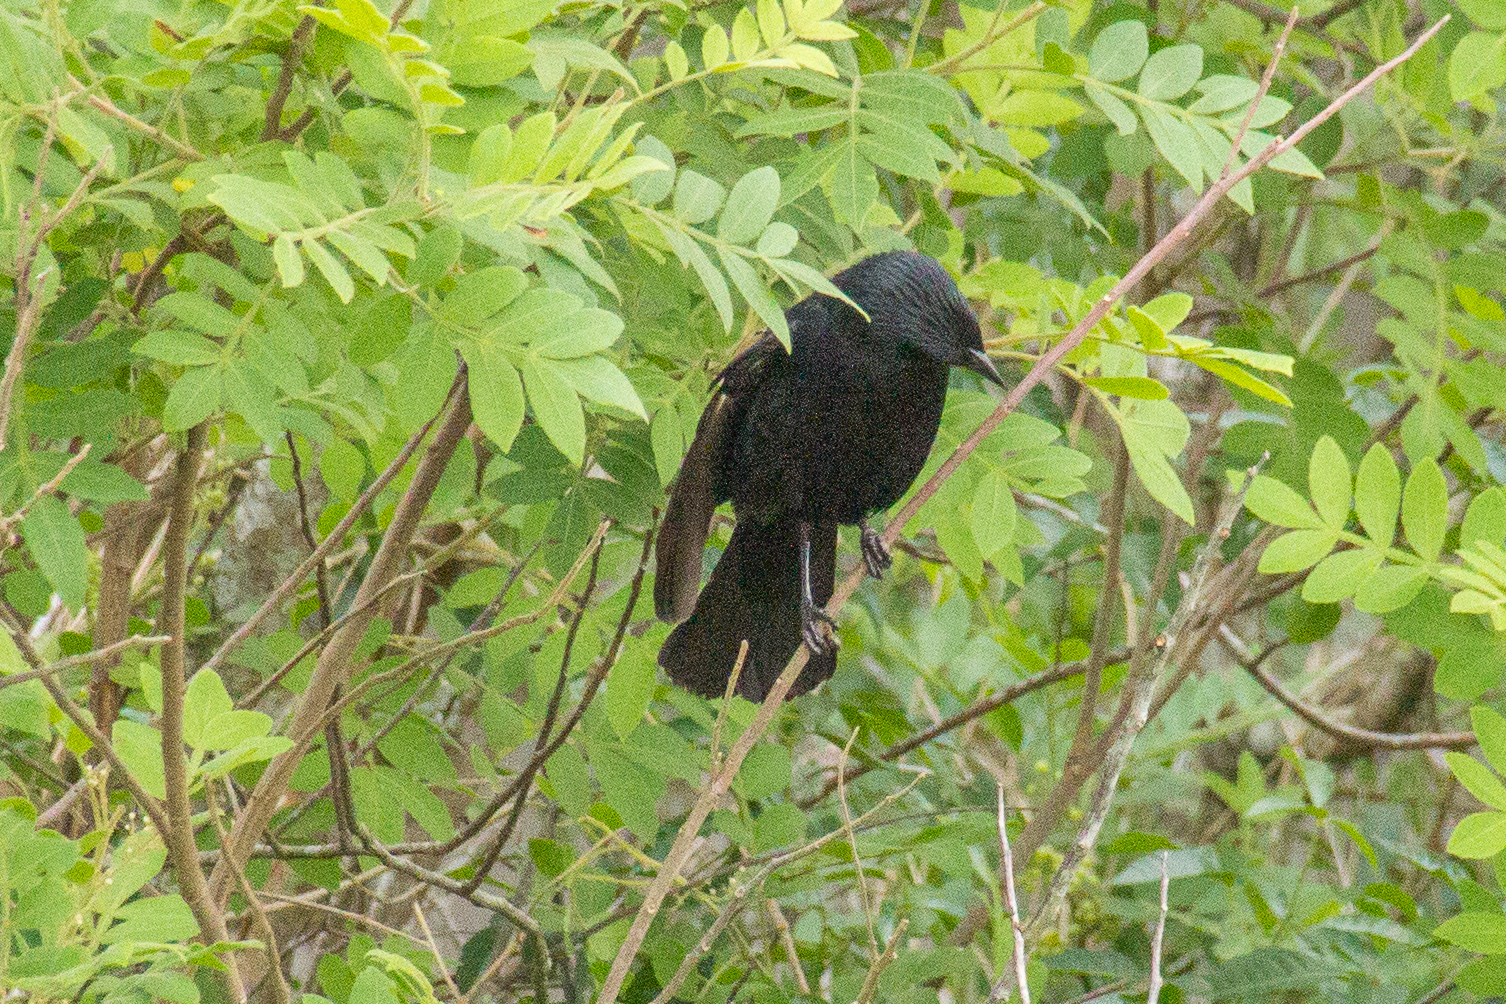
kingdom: Animalia
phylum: Chordata
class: Aves
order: Passeriformes
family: Icteridae
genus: Gnorimopsar
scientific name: Gnorimopsar chopi
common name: Chopi blackbird
